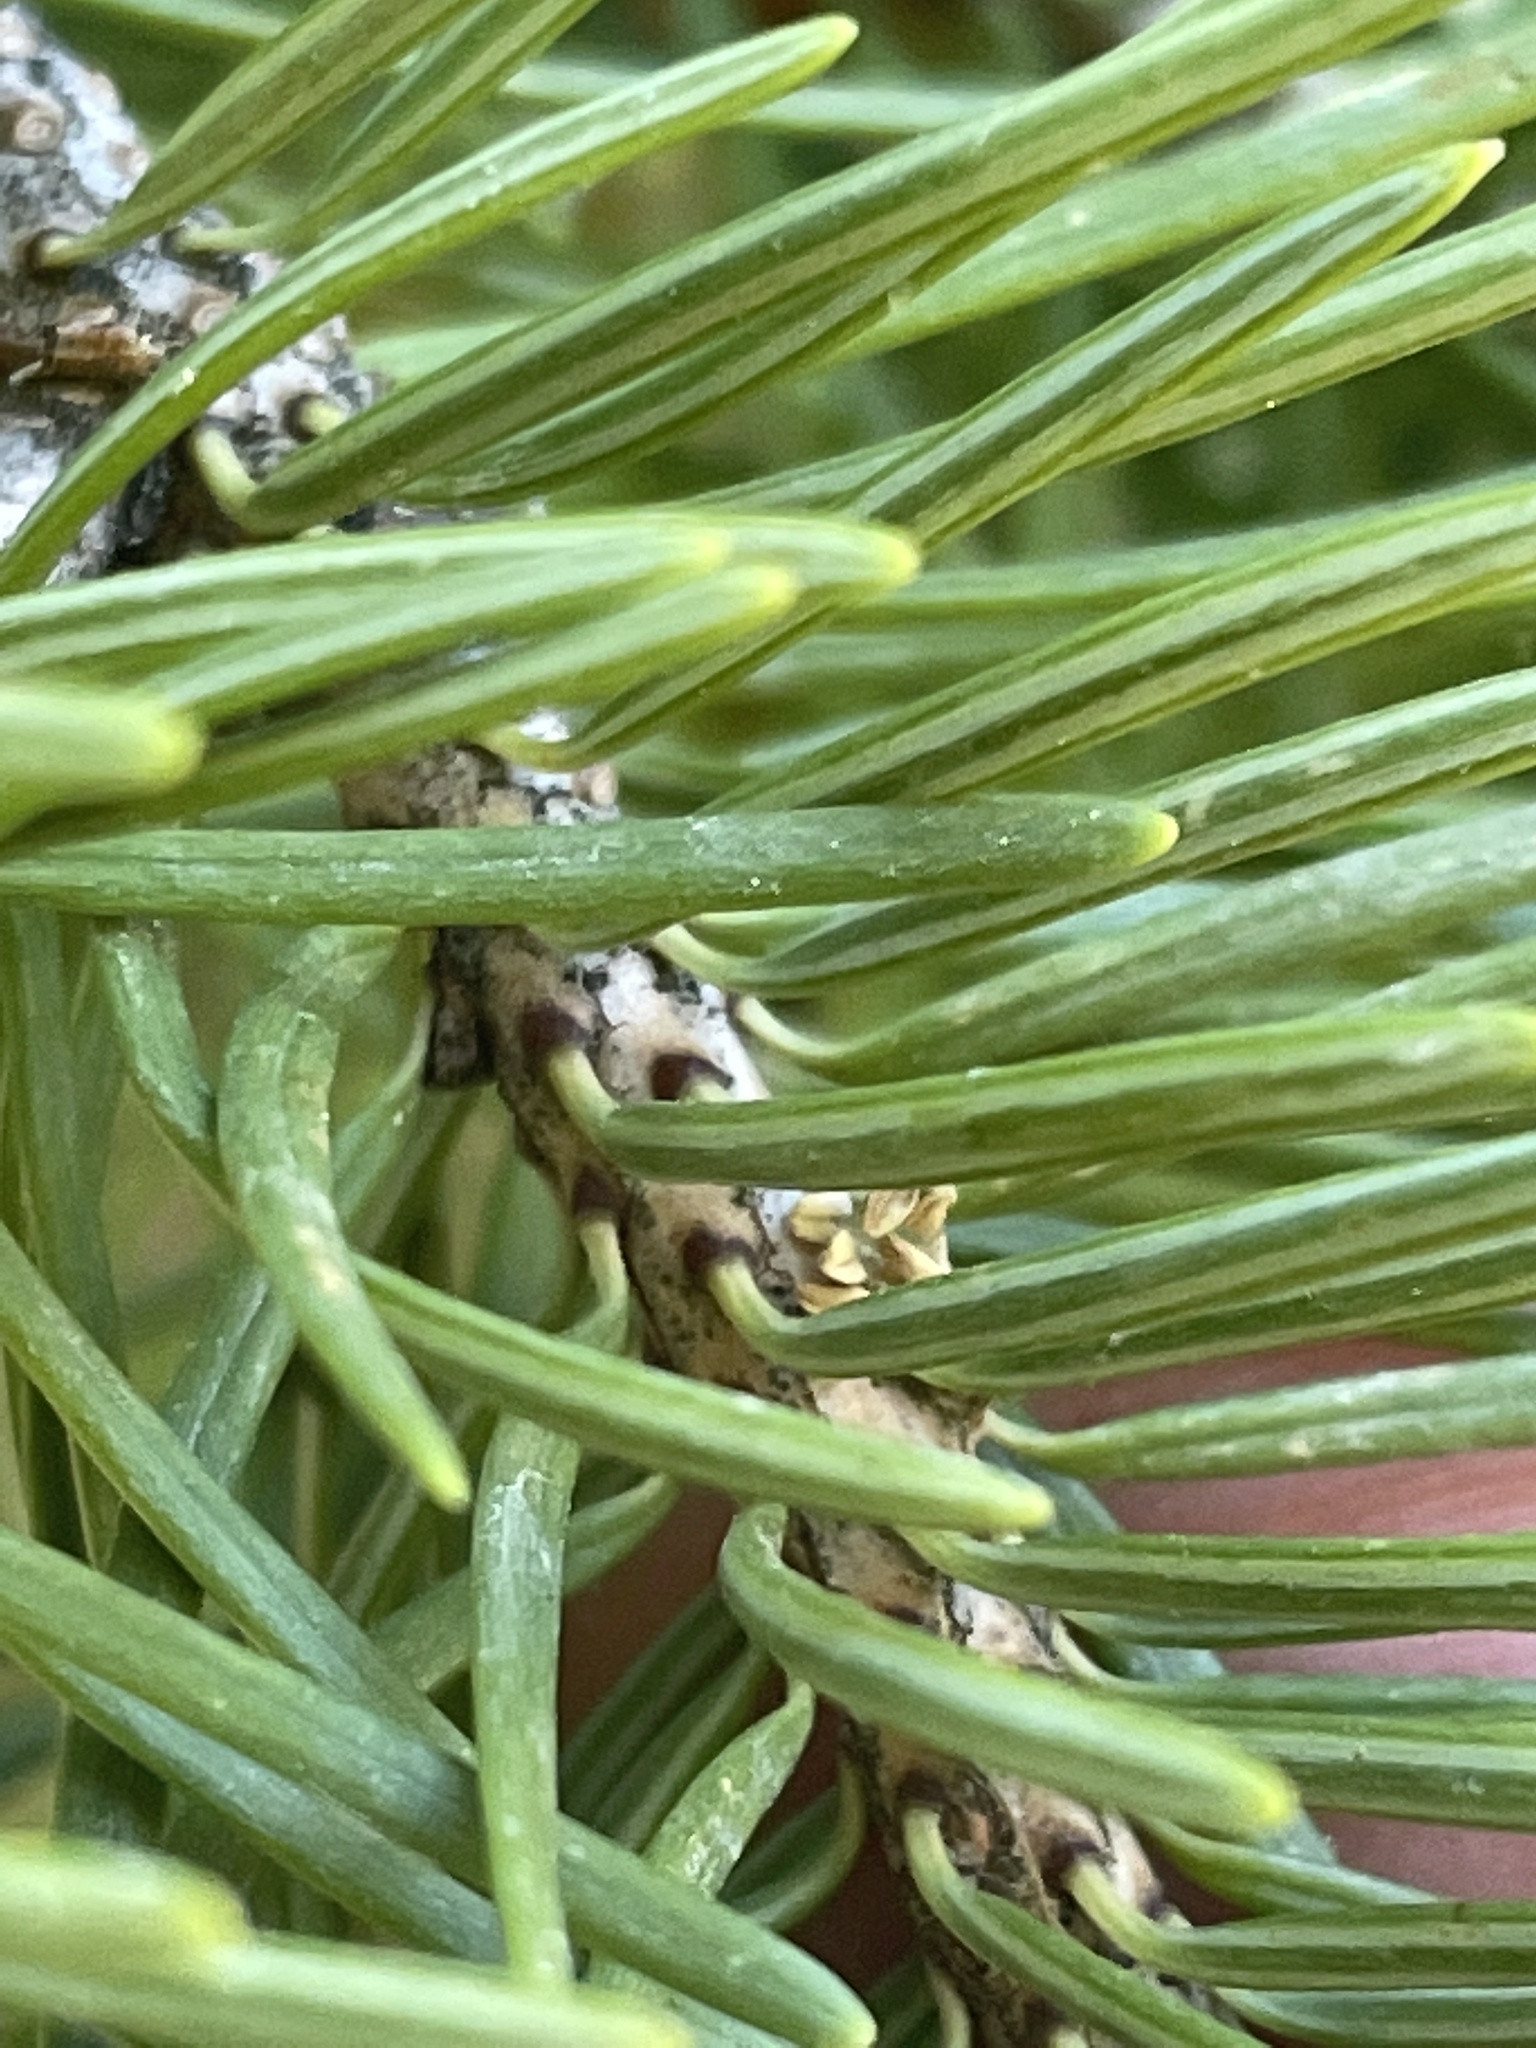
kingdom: Plantae
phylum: Tracheophyta
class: Pinopsida
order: Pinales
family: Pinaceae
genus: Pseudotsuga
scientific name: Pseudotsuga menziesii
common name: Douglas fir
